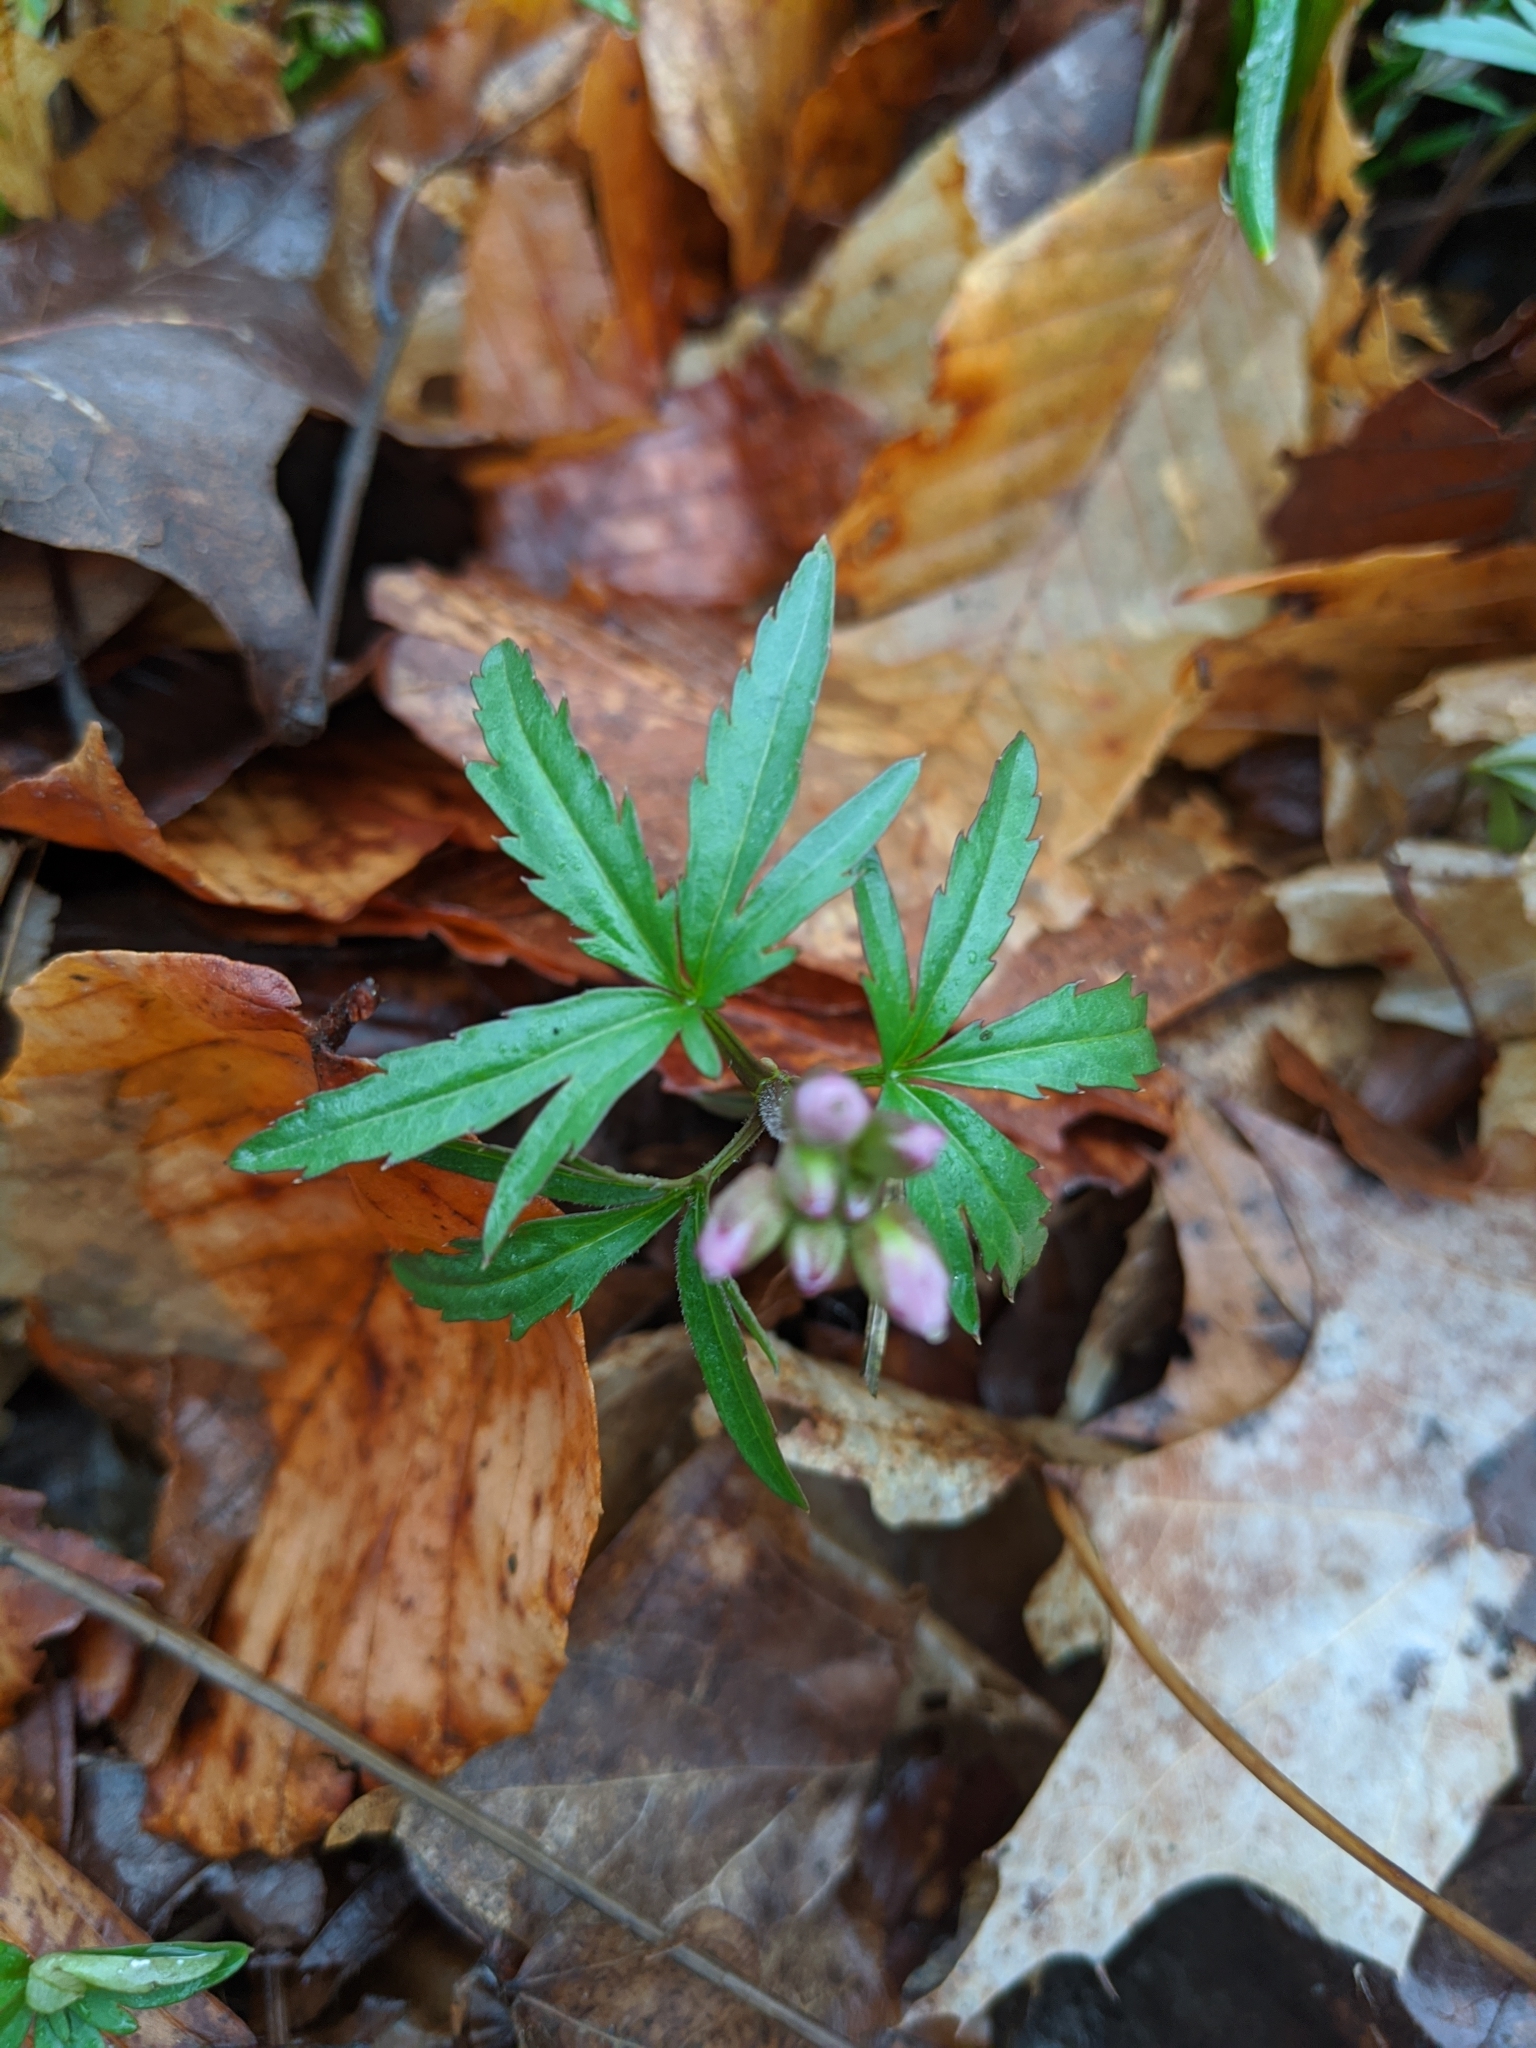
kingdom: Plantae
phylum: Tracheophyta
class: Magnoliopsida
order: Brassicales
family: Brassicaceae
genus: Cardamine
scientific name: Cardamine concatenata
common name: Cut-leaf toothcup
